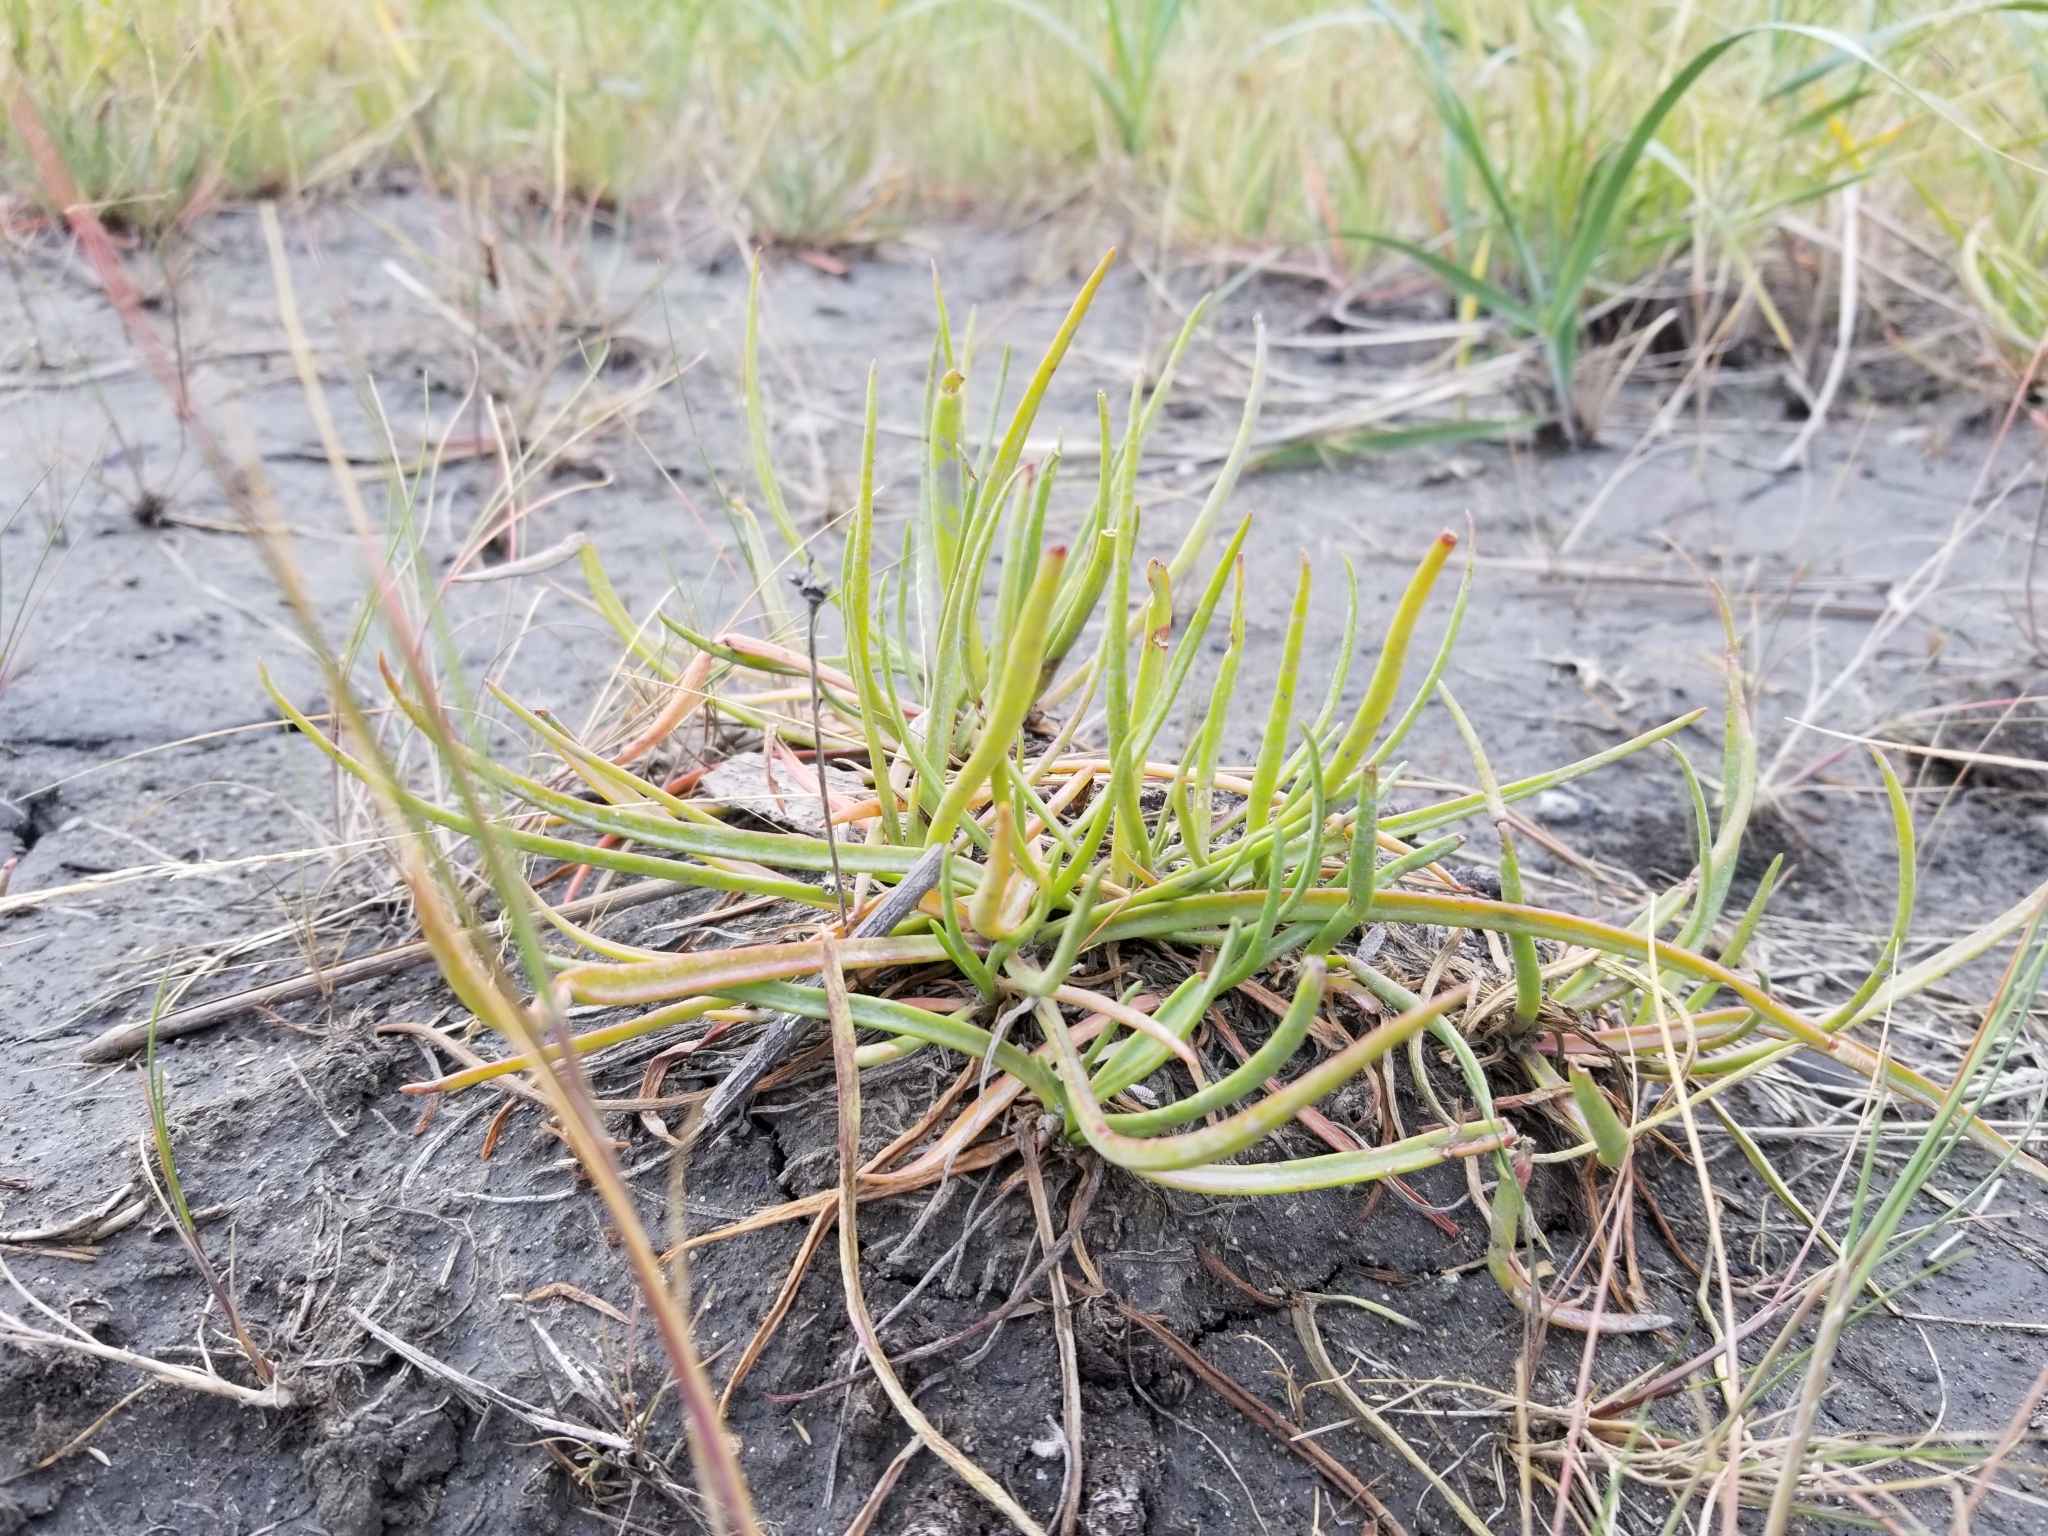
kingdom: Plantae
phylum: Tracheophyta
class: Magnoliopsida
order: Lamiales
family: Plantaginaceae
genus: Plantago
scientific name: Plantago maritima
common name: Sea plantain
